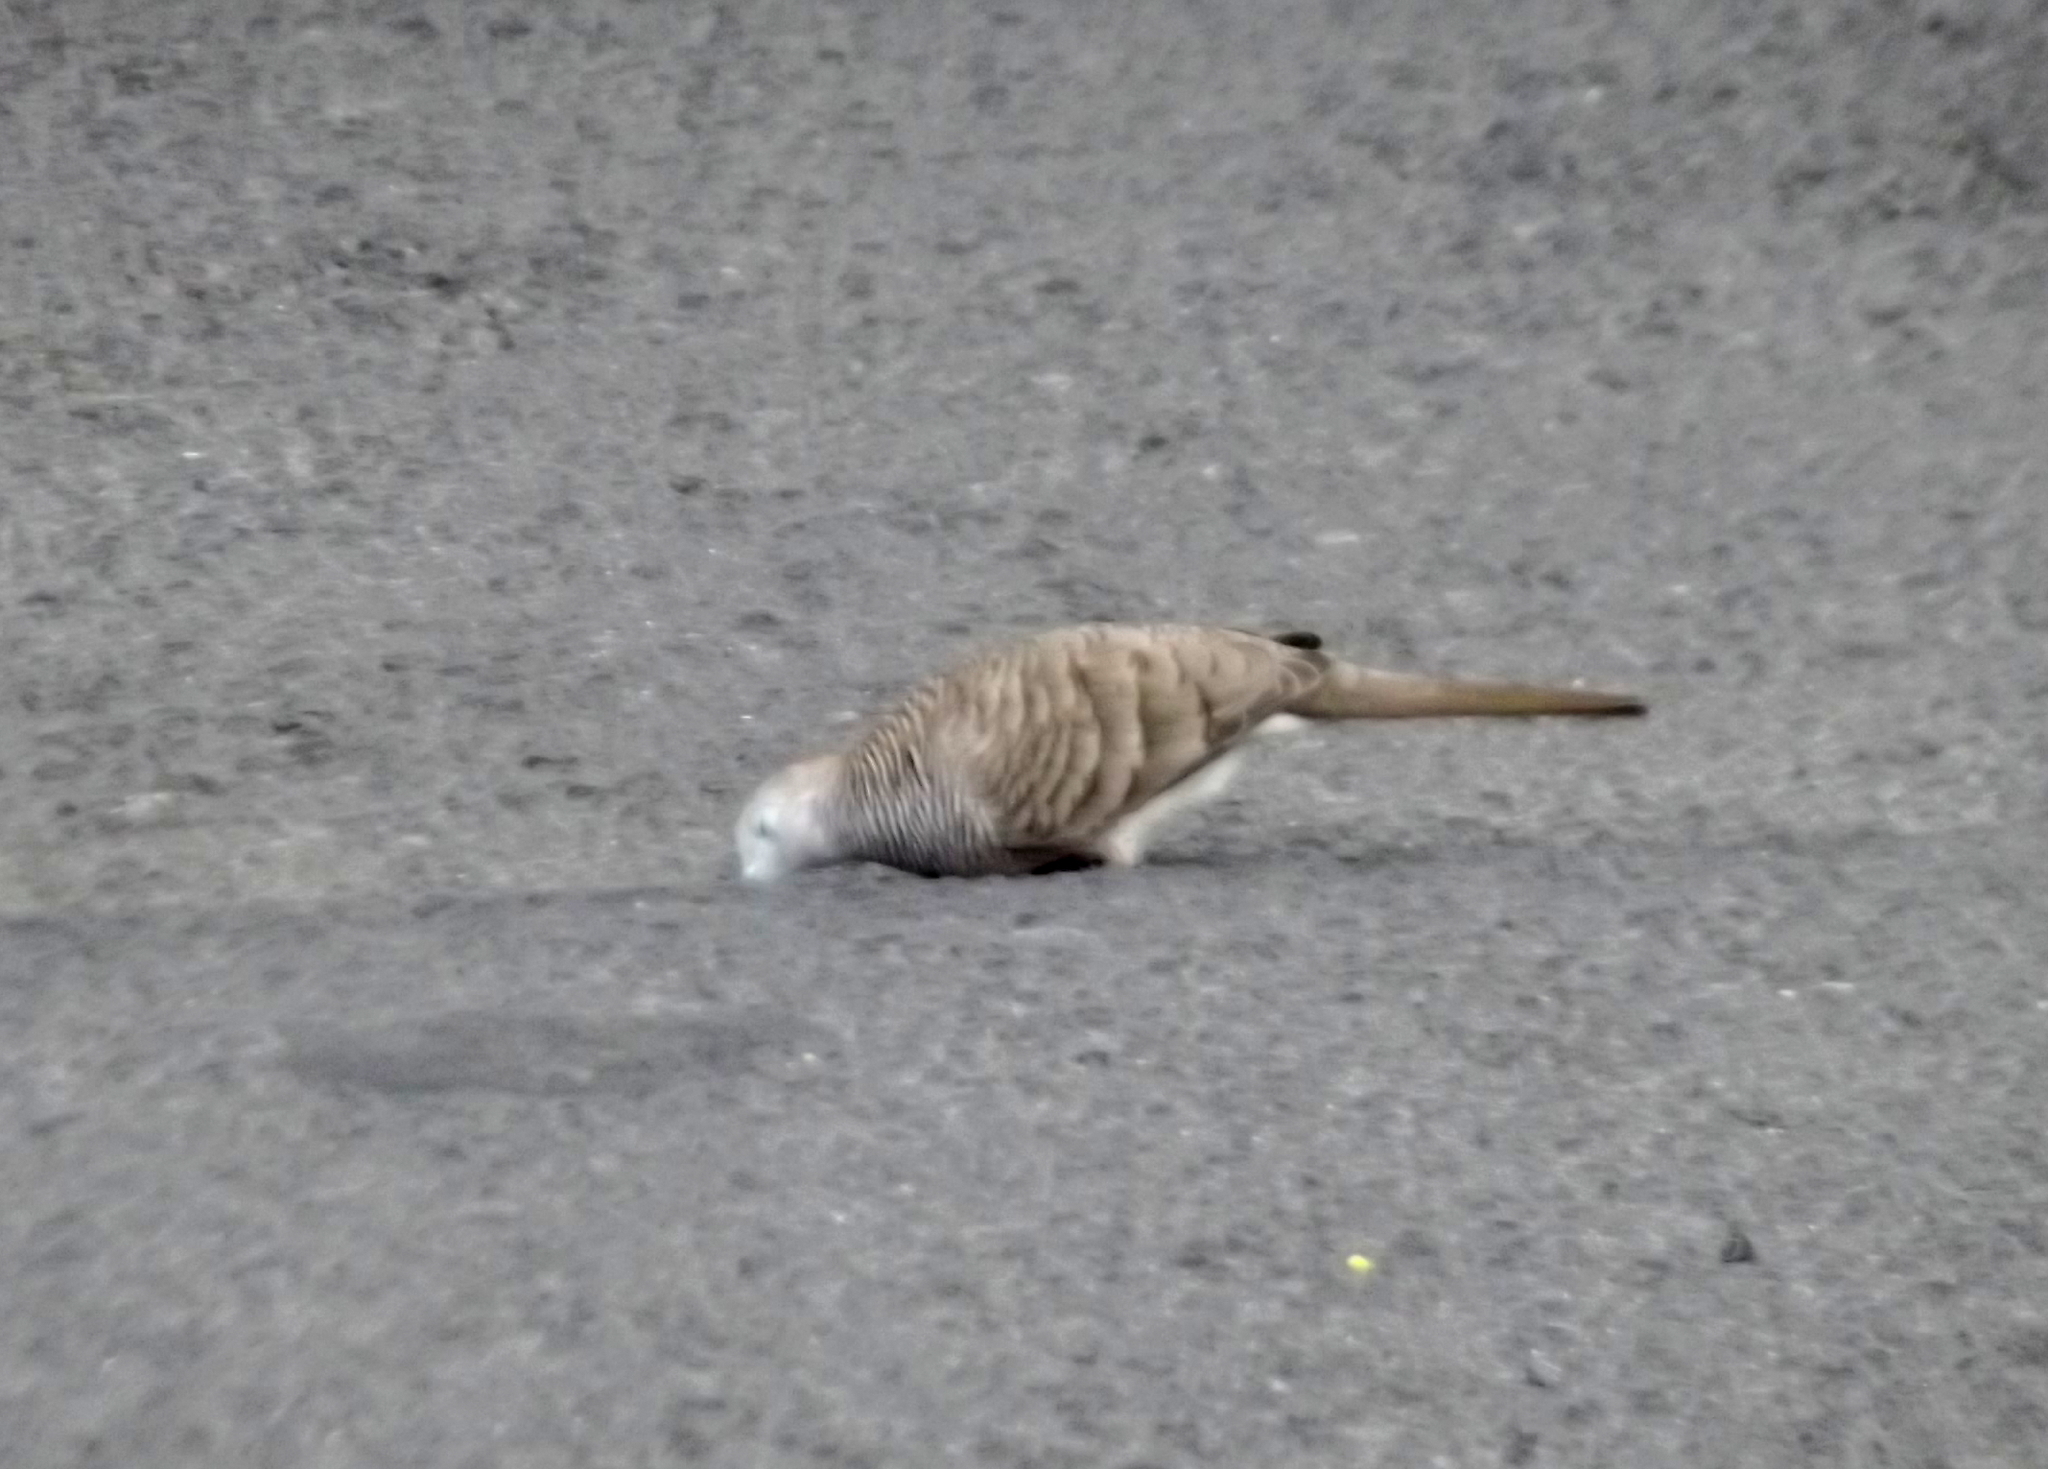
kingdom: Animalia
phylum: Chordata
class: Aves
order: Columbiformes
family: Columbidae
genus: Geopelia
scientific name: Geopelia striata
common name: Zebra dove
